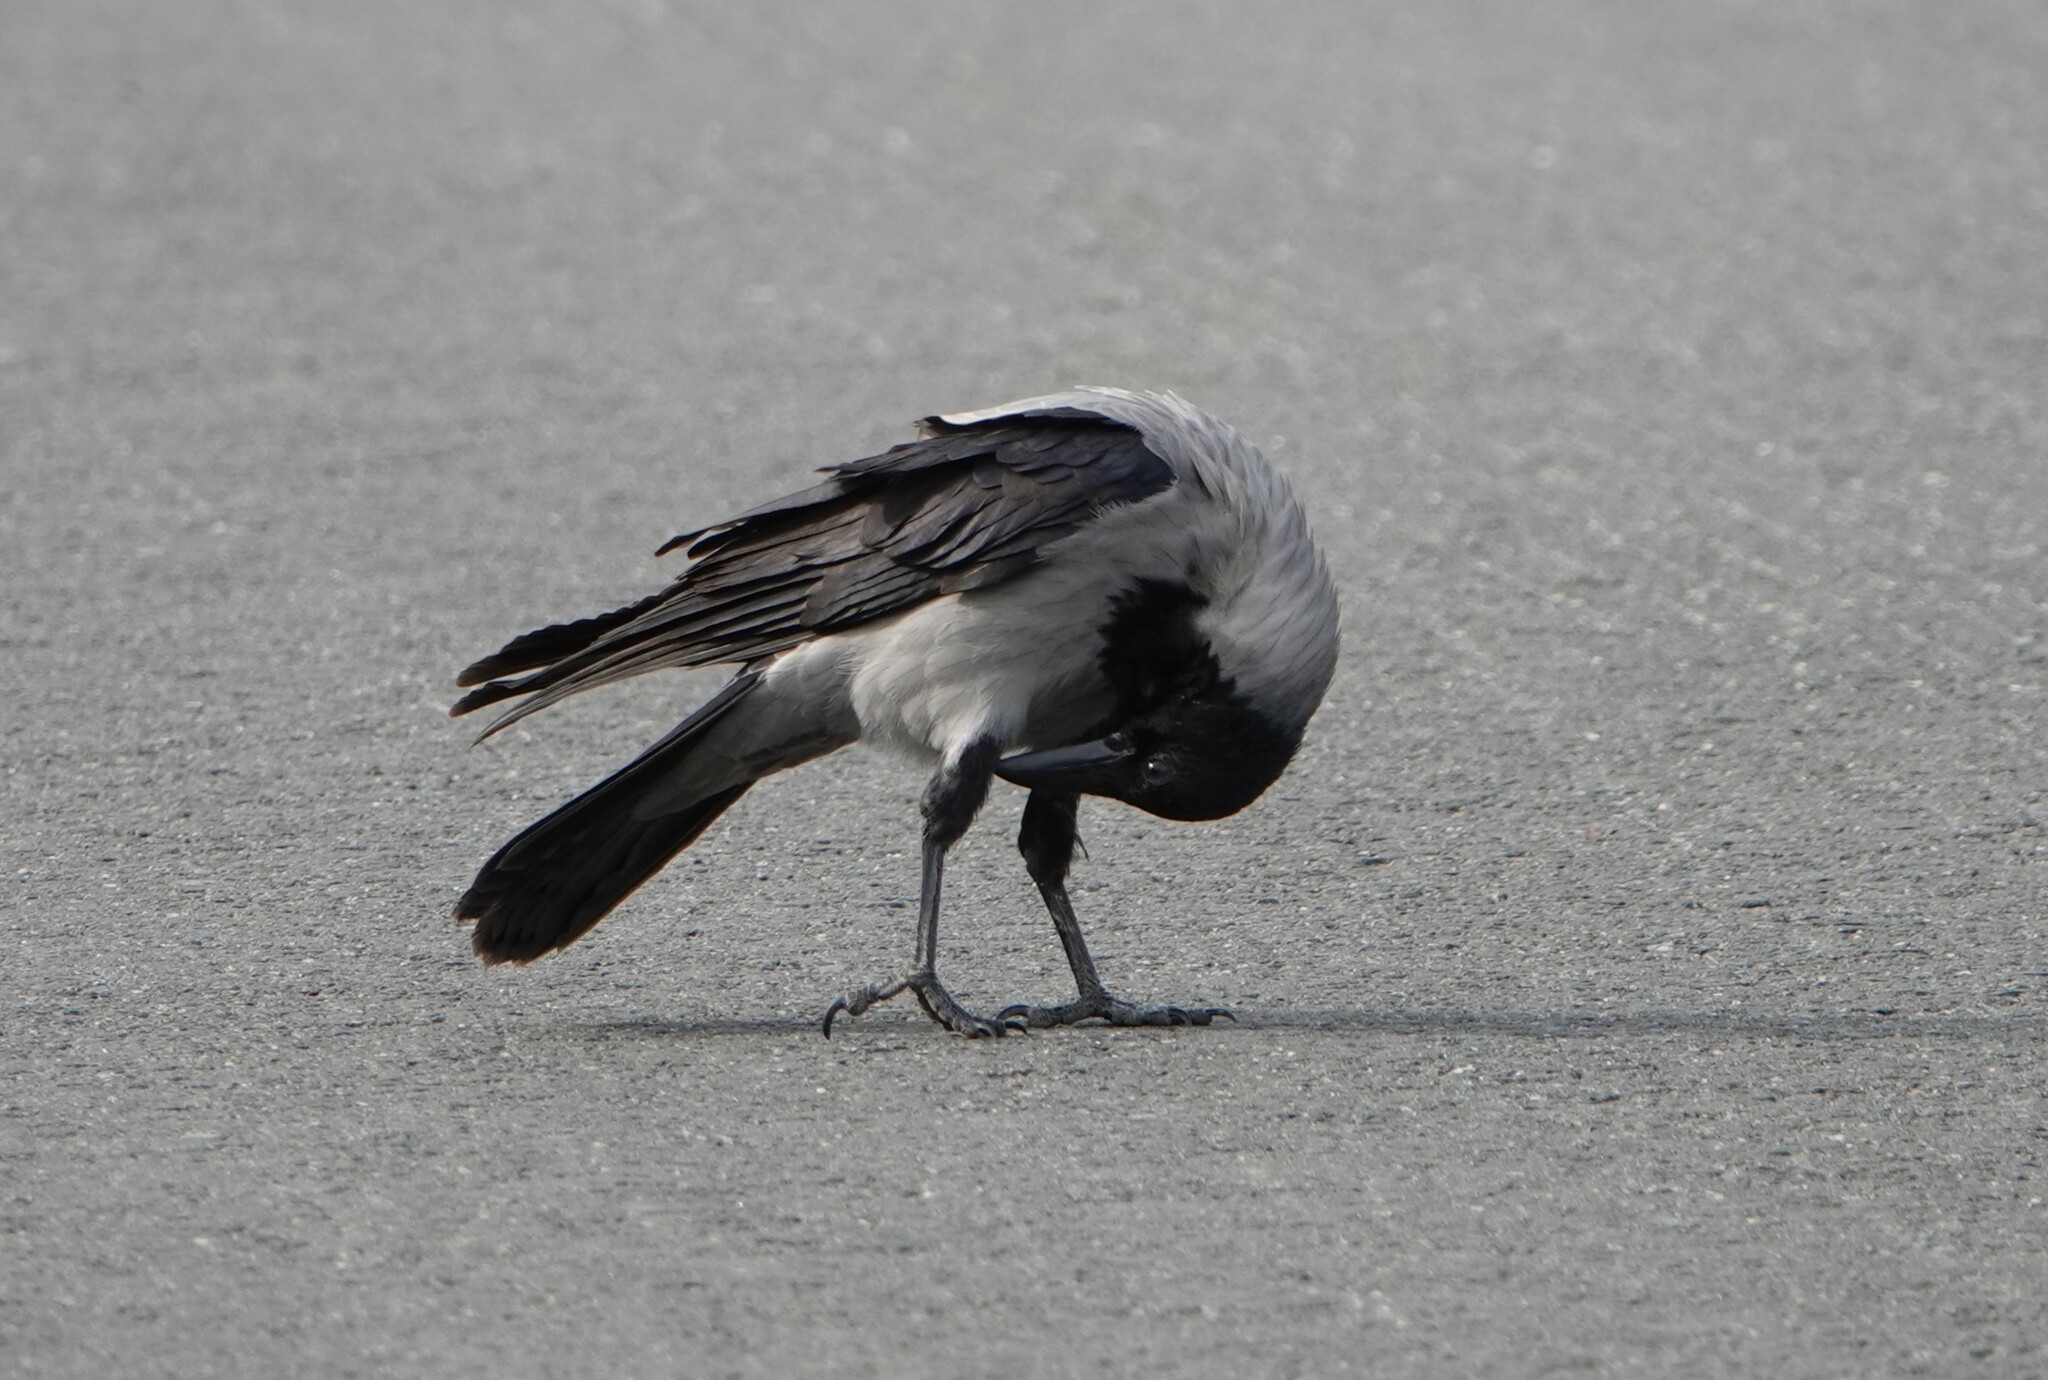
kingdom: Animalia
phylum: Chordata
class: Aves
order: Passeriformes
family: Corvidae
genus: Corvus
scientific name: Corvus cornix
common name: Hooded crow
